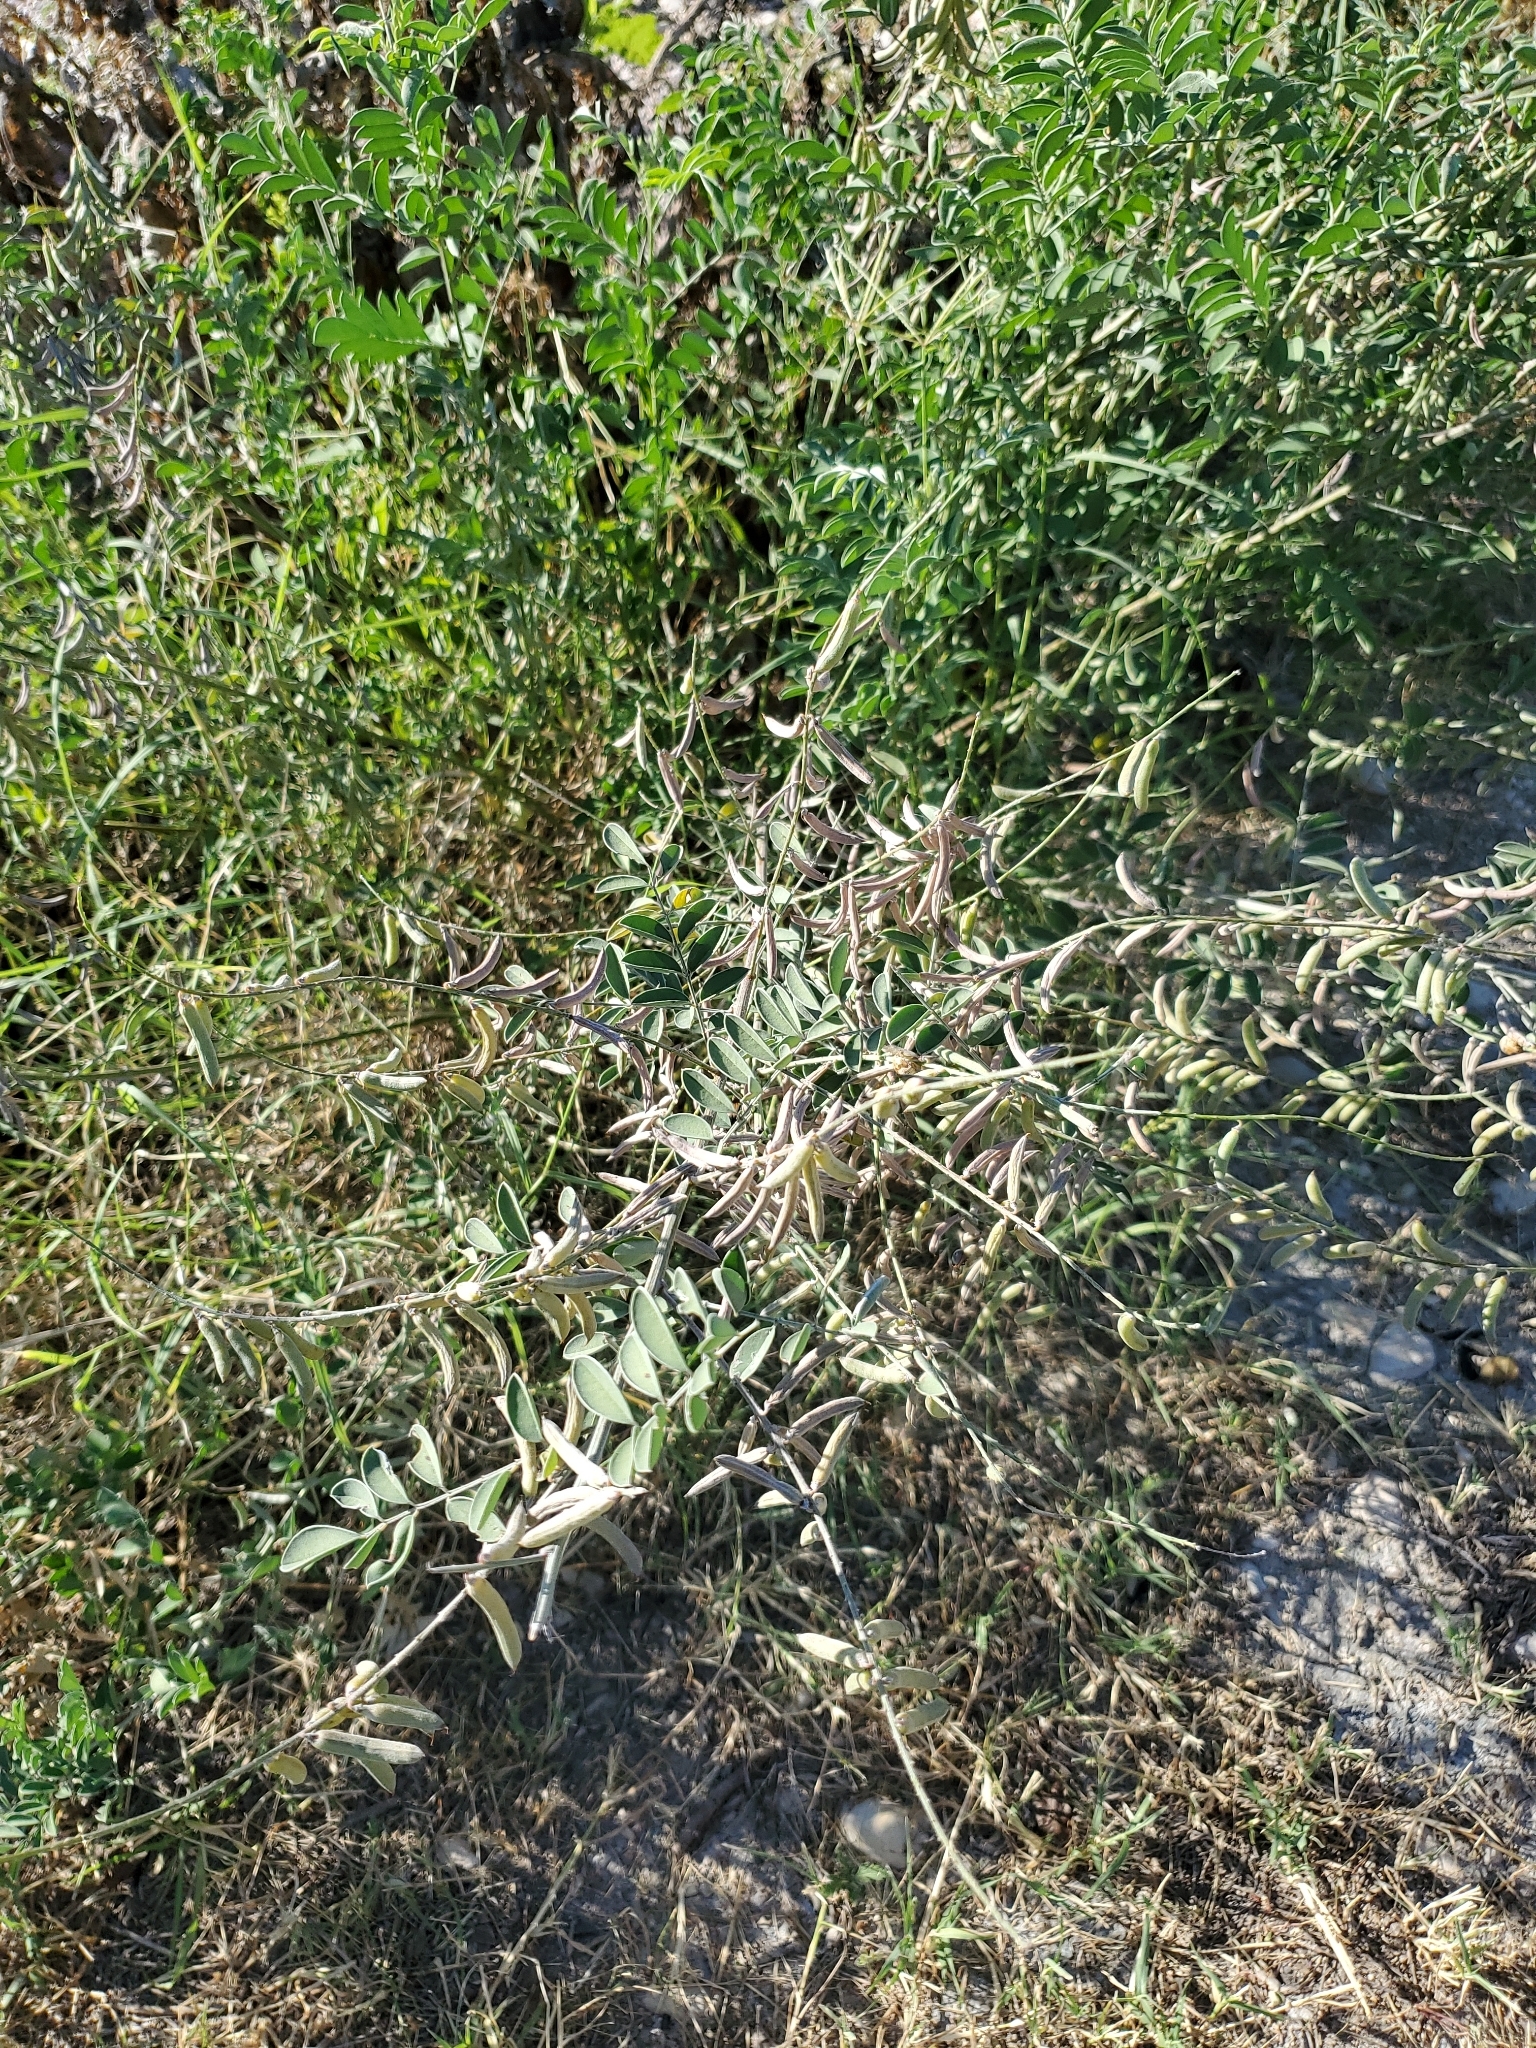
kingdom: Plantae
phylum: Tracheophyta
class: Magnoliopsida
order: Fabales
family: Fabaceae
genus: Indigofera
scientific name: Indigofera lindheimeriana
